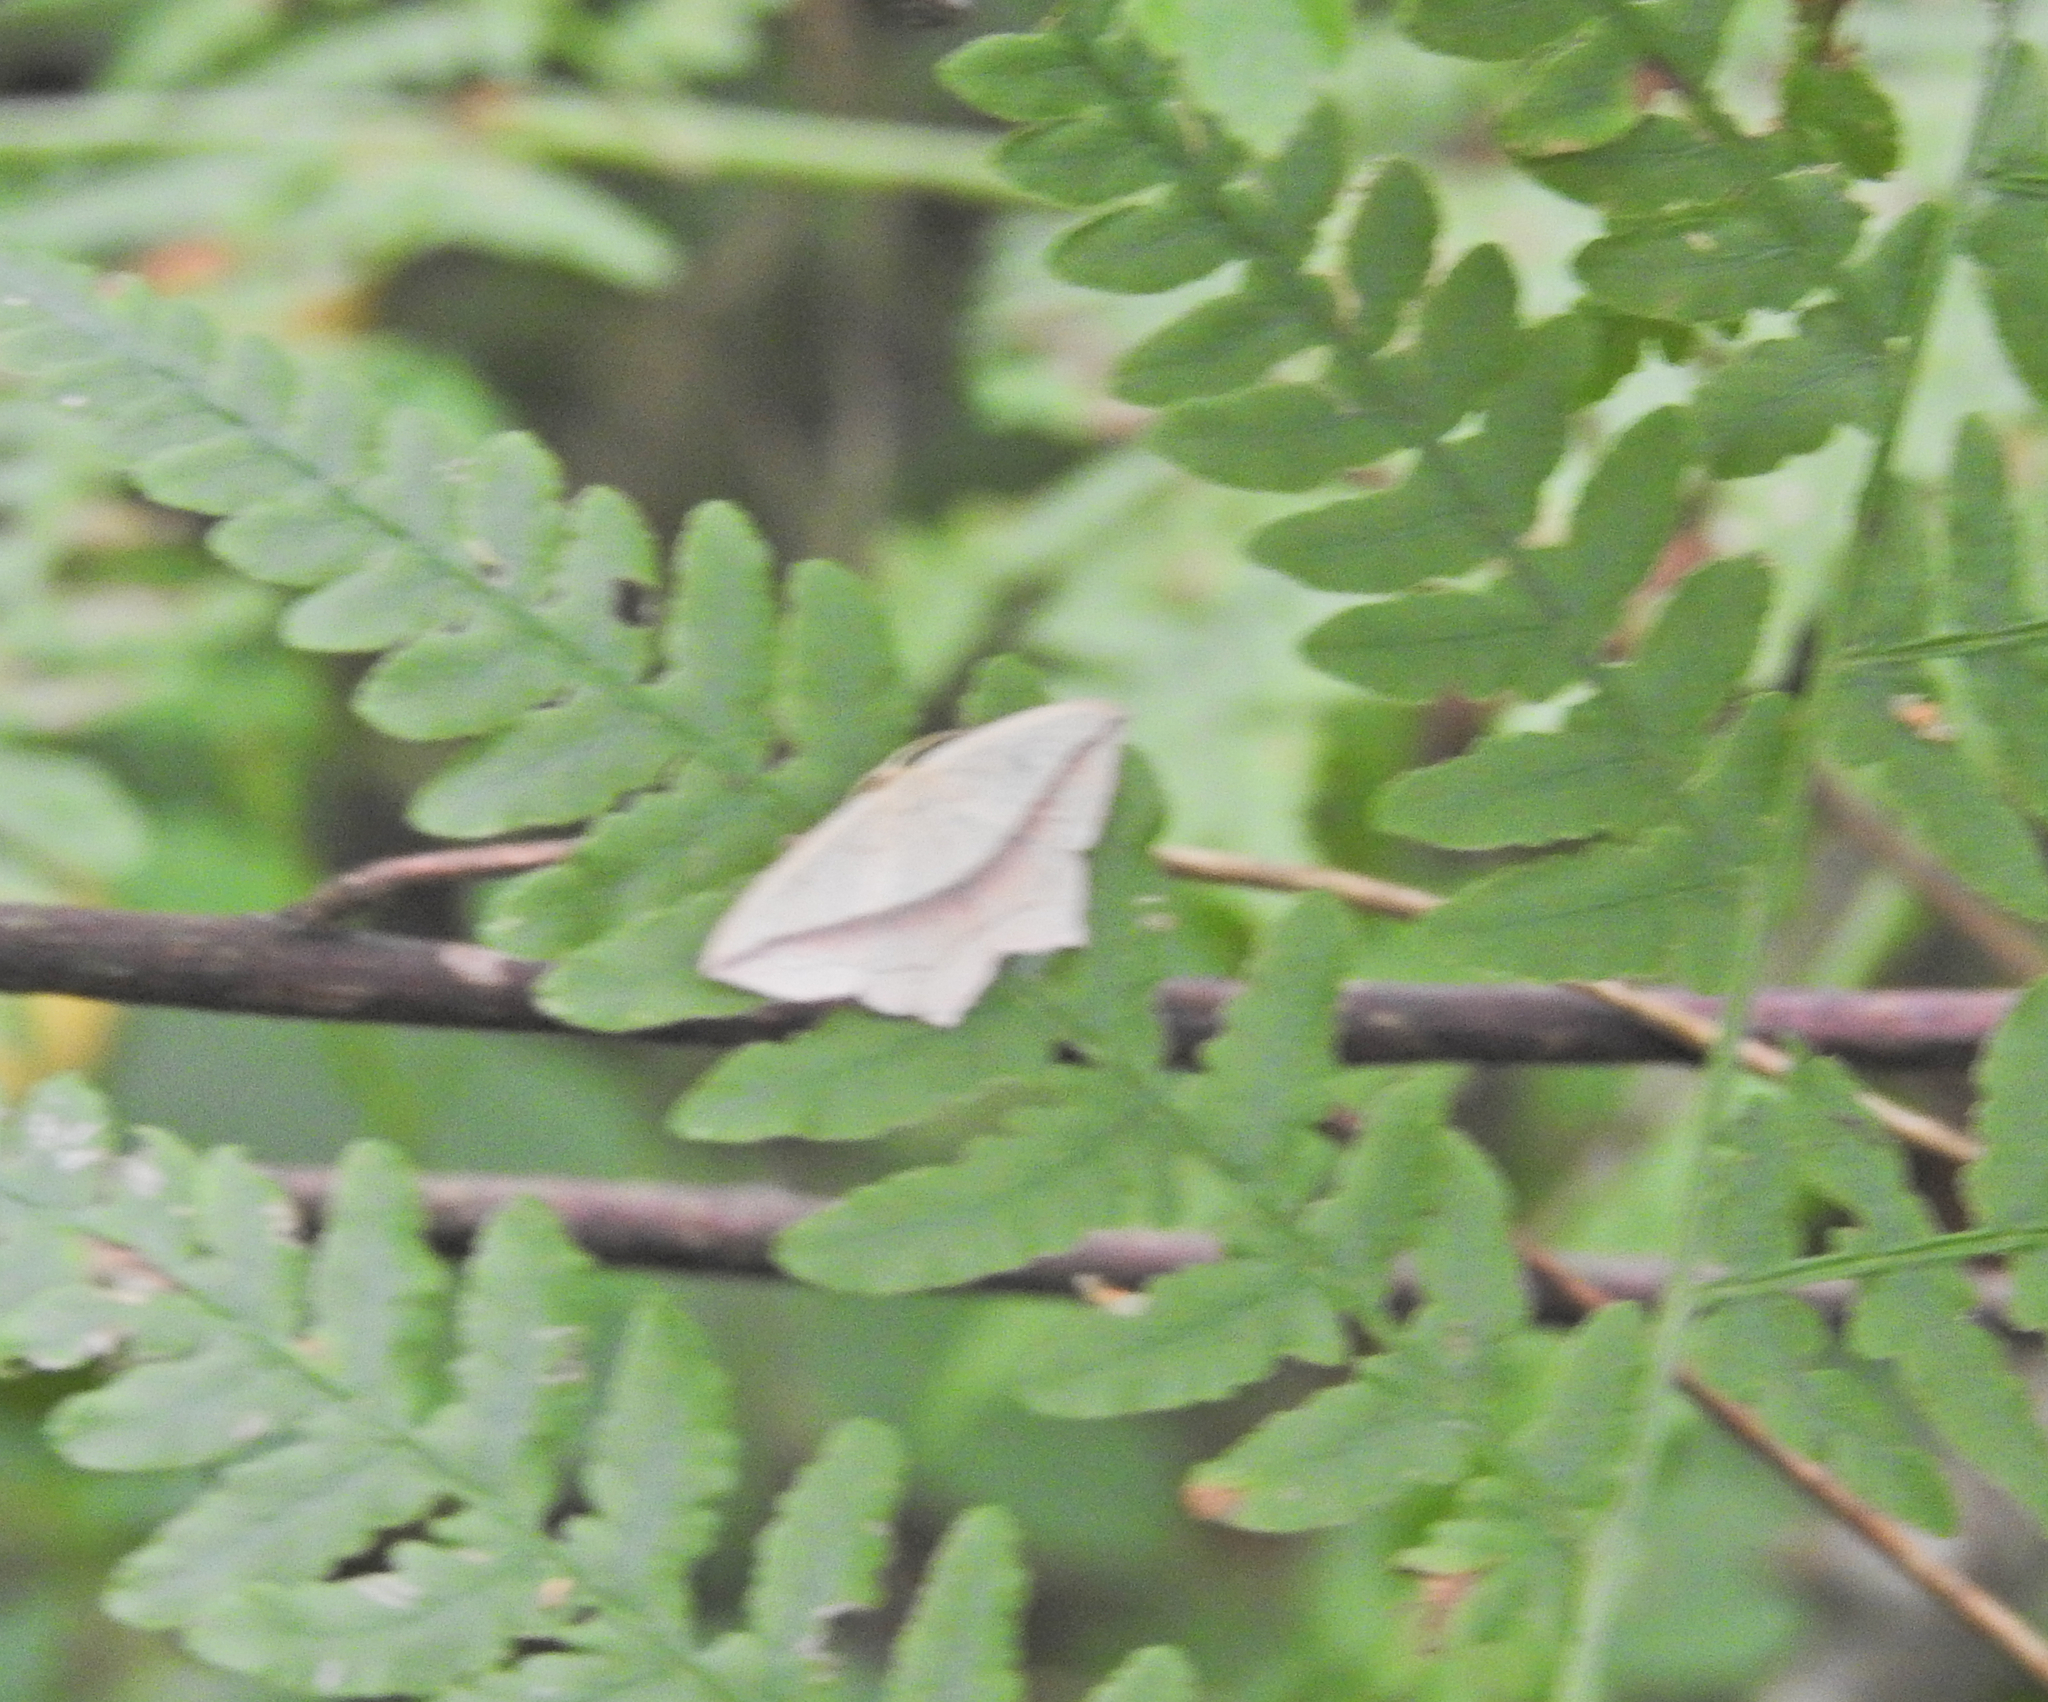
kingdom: Animalia
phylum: Arthropoda
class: Insecta
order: Lepidoptera
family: Geometridae
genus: Timandra
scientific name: Timandra comae
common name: Blood-vein
